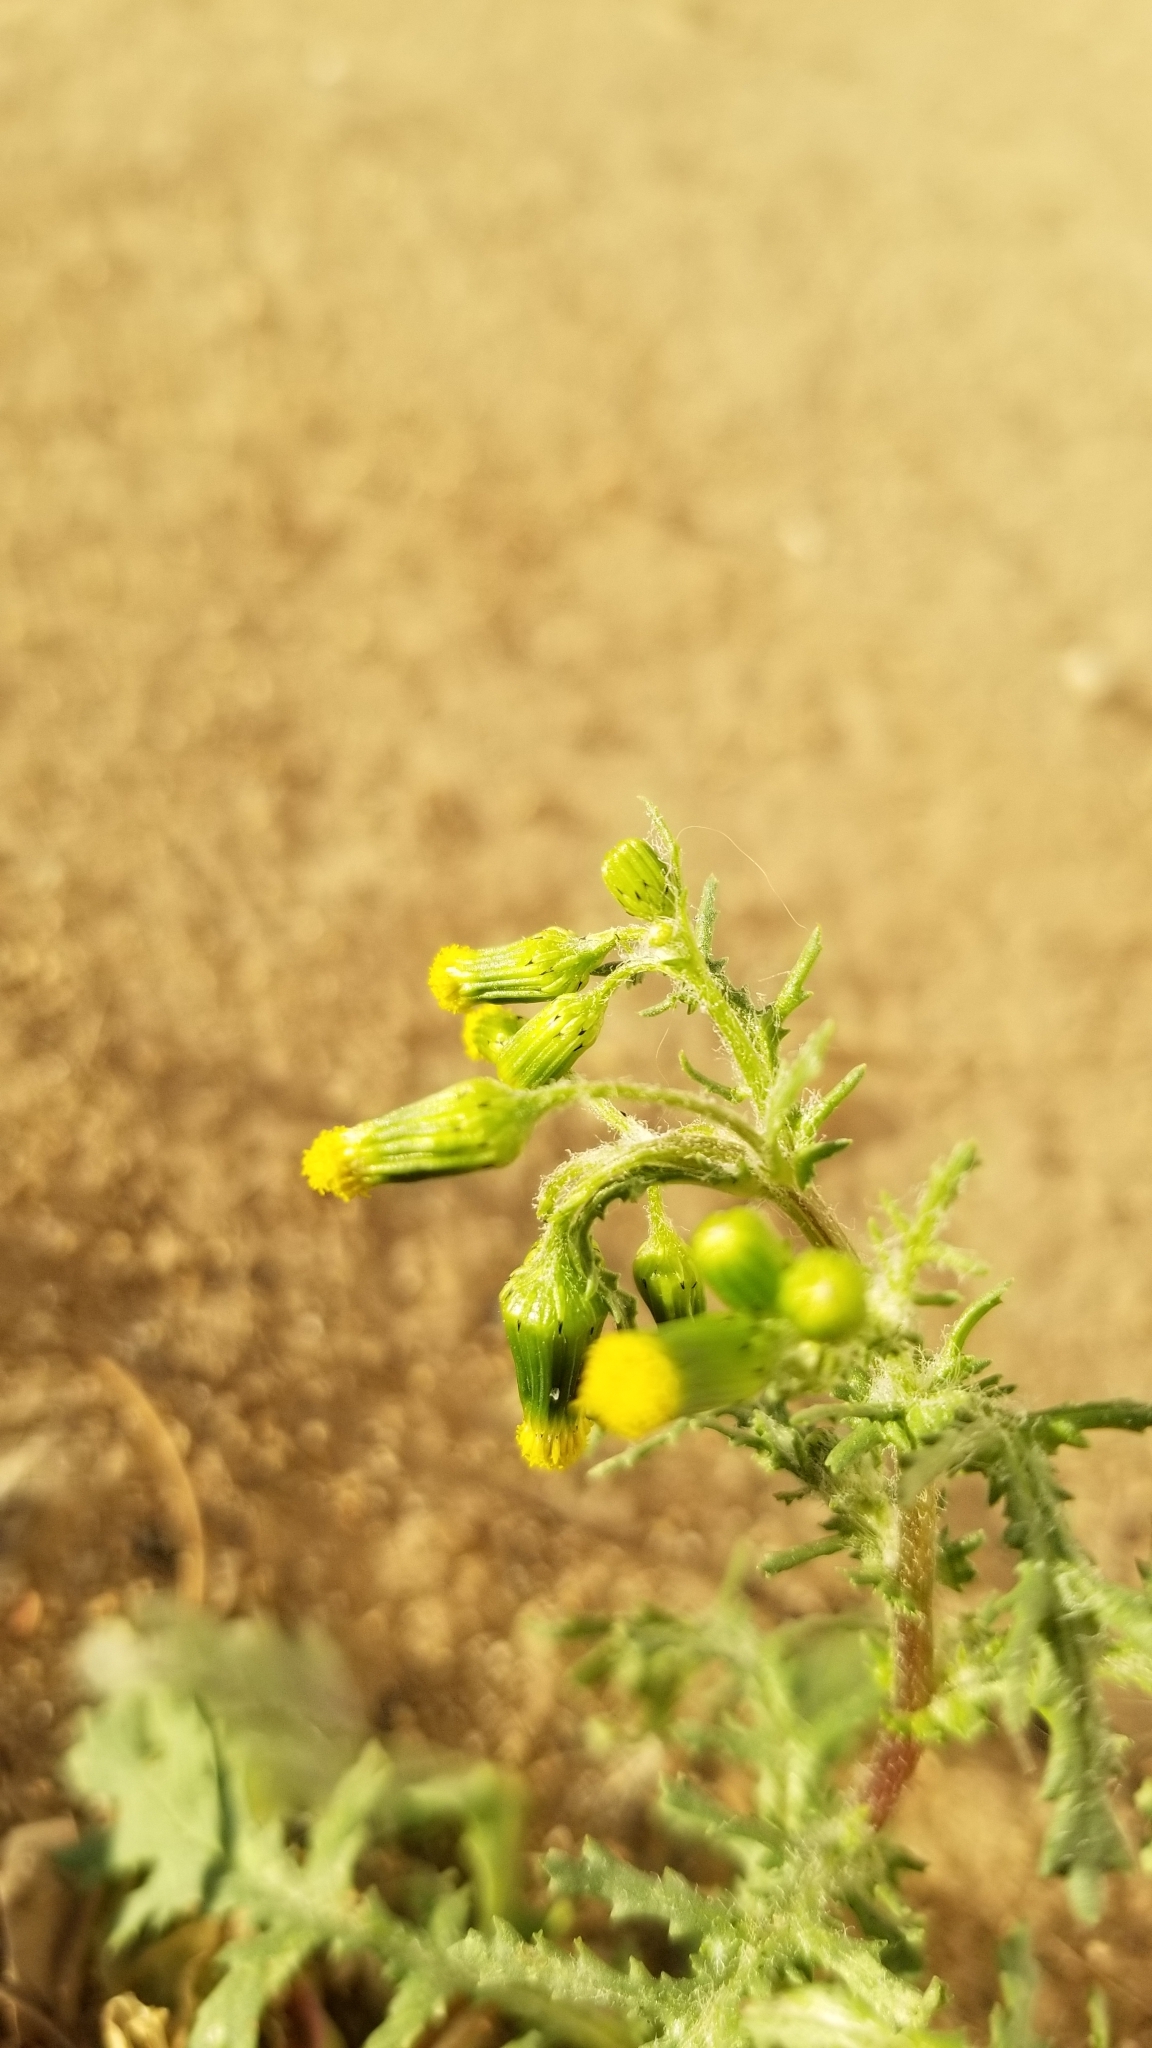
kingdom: Plantae
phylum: Tracheophyta
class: Magnoliopsida
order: Asterales
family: Asteraceae
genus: Senecio
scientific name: Senecio vulgaris
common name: Old-man-in-the-spring
